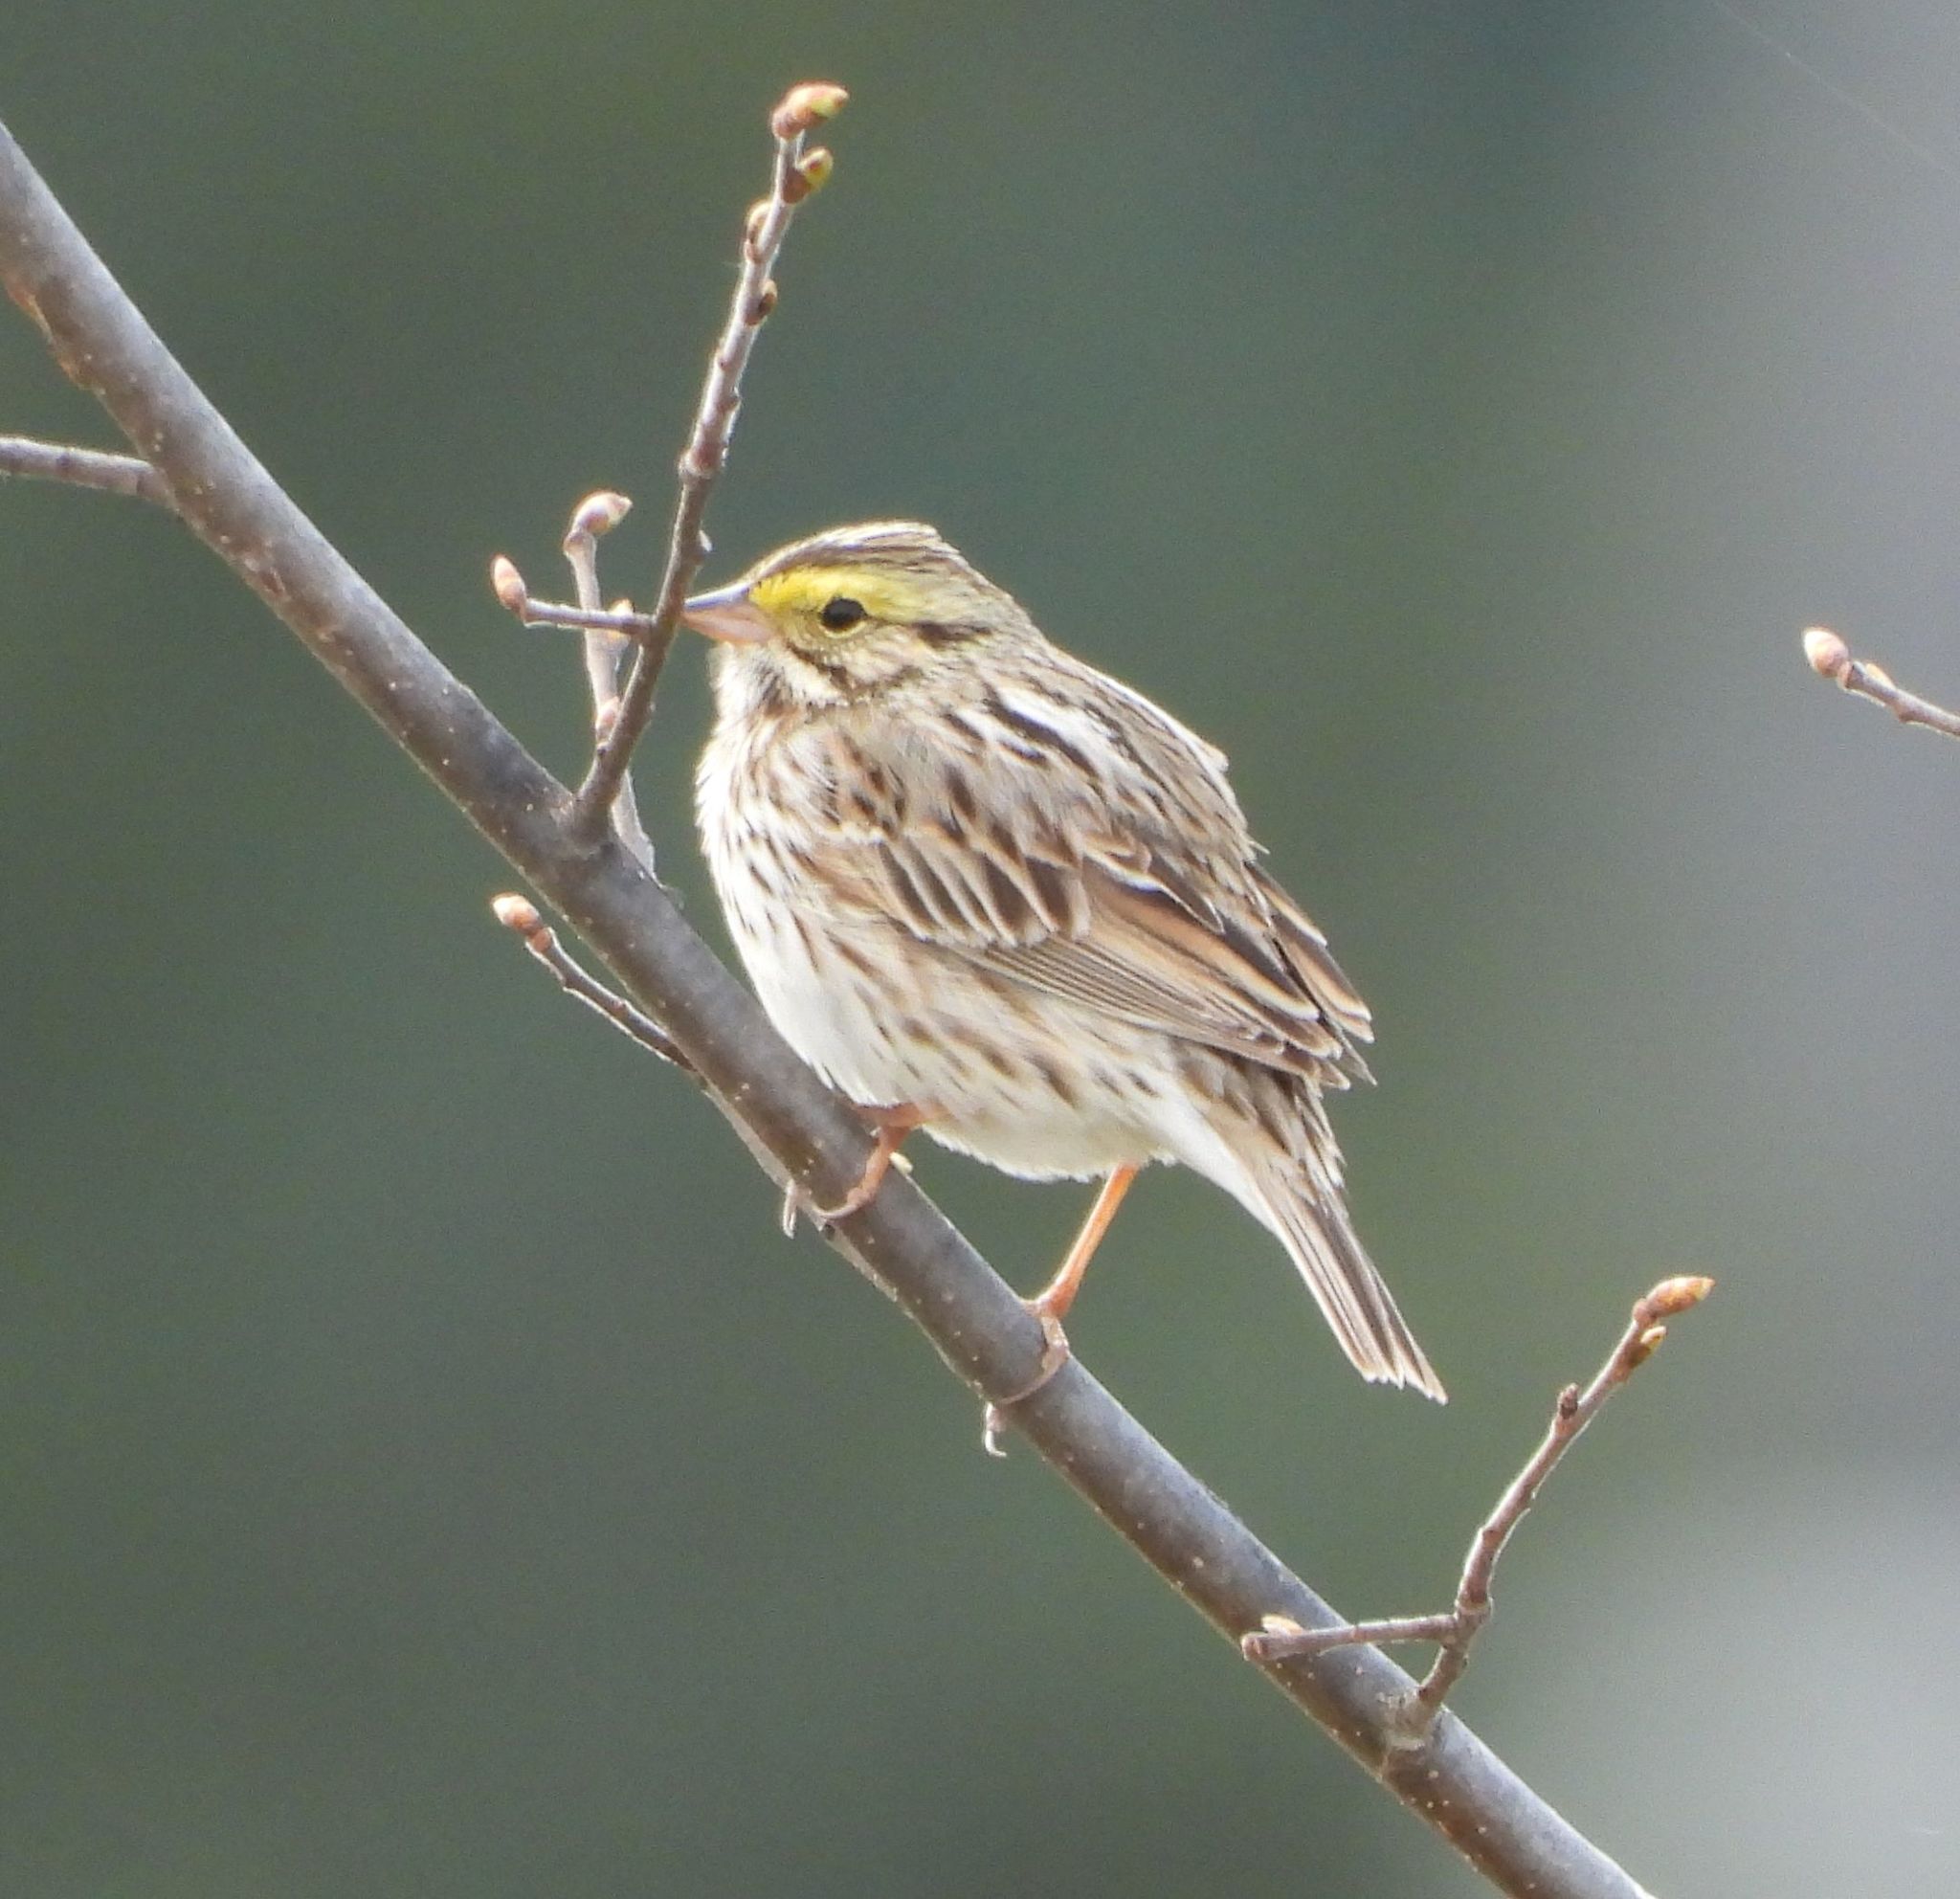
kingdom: Animalia
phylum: Chordata
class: Aves
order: Passeriformes
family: Passerellidae
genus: Passerculus
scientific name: Passerculus sandwichensis
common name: Savannah sparrow
